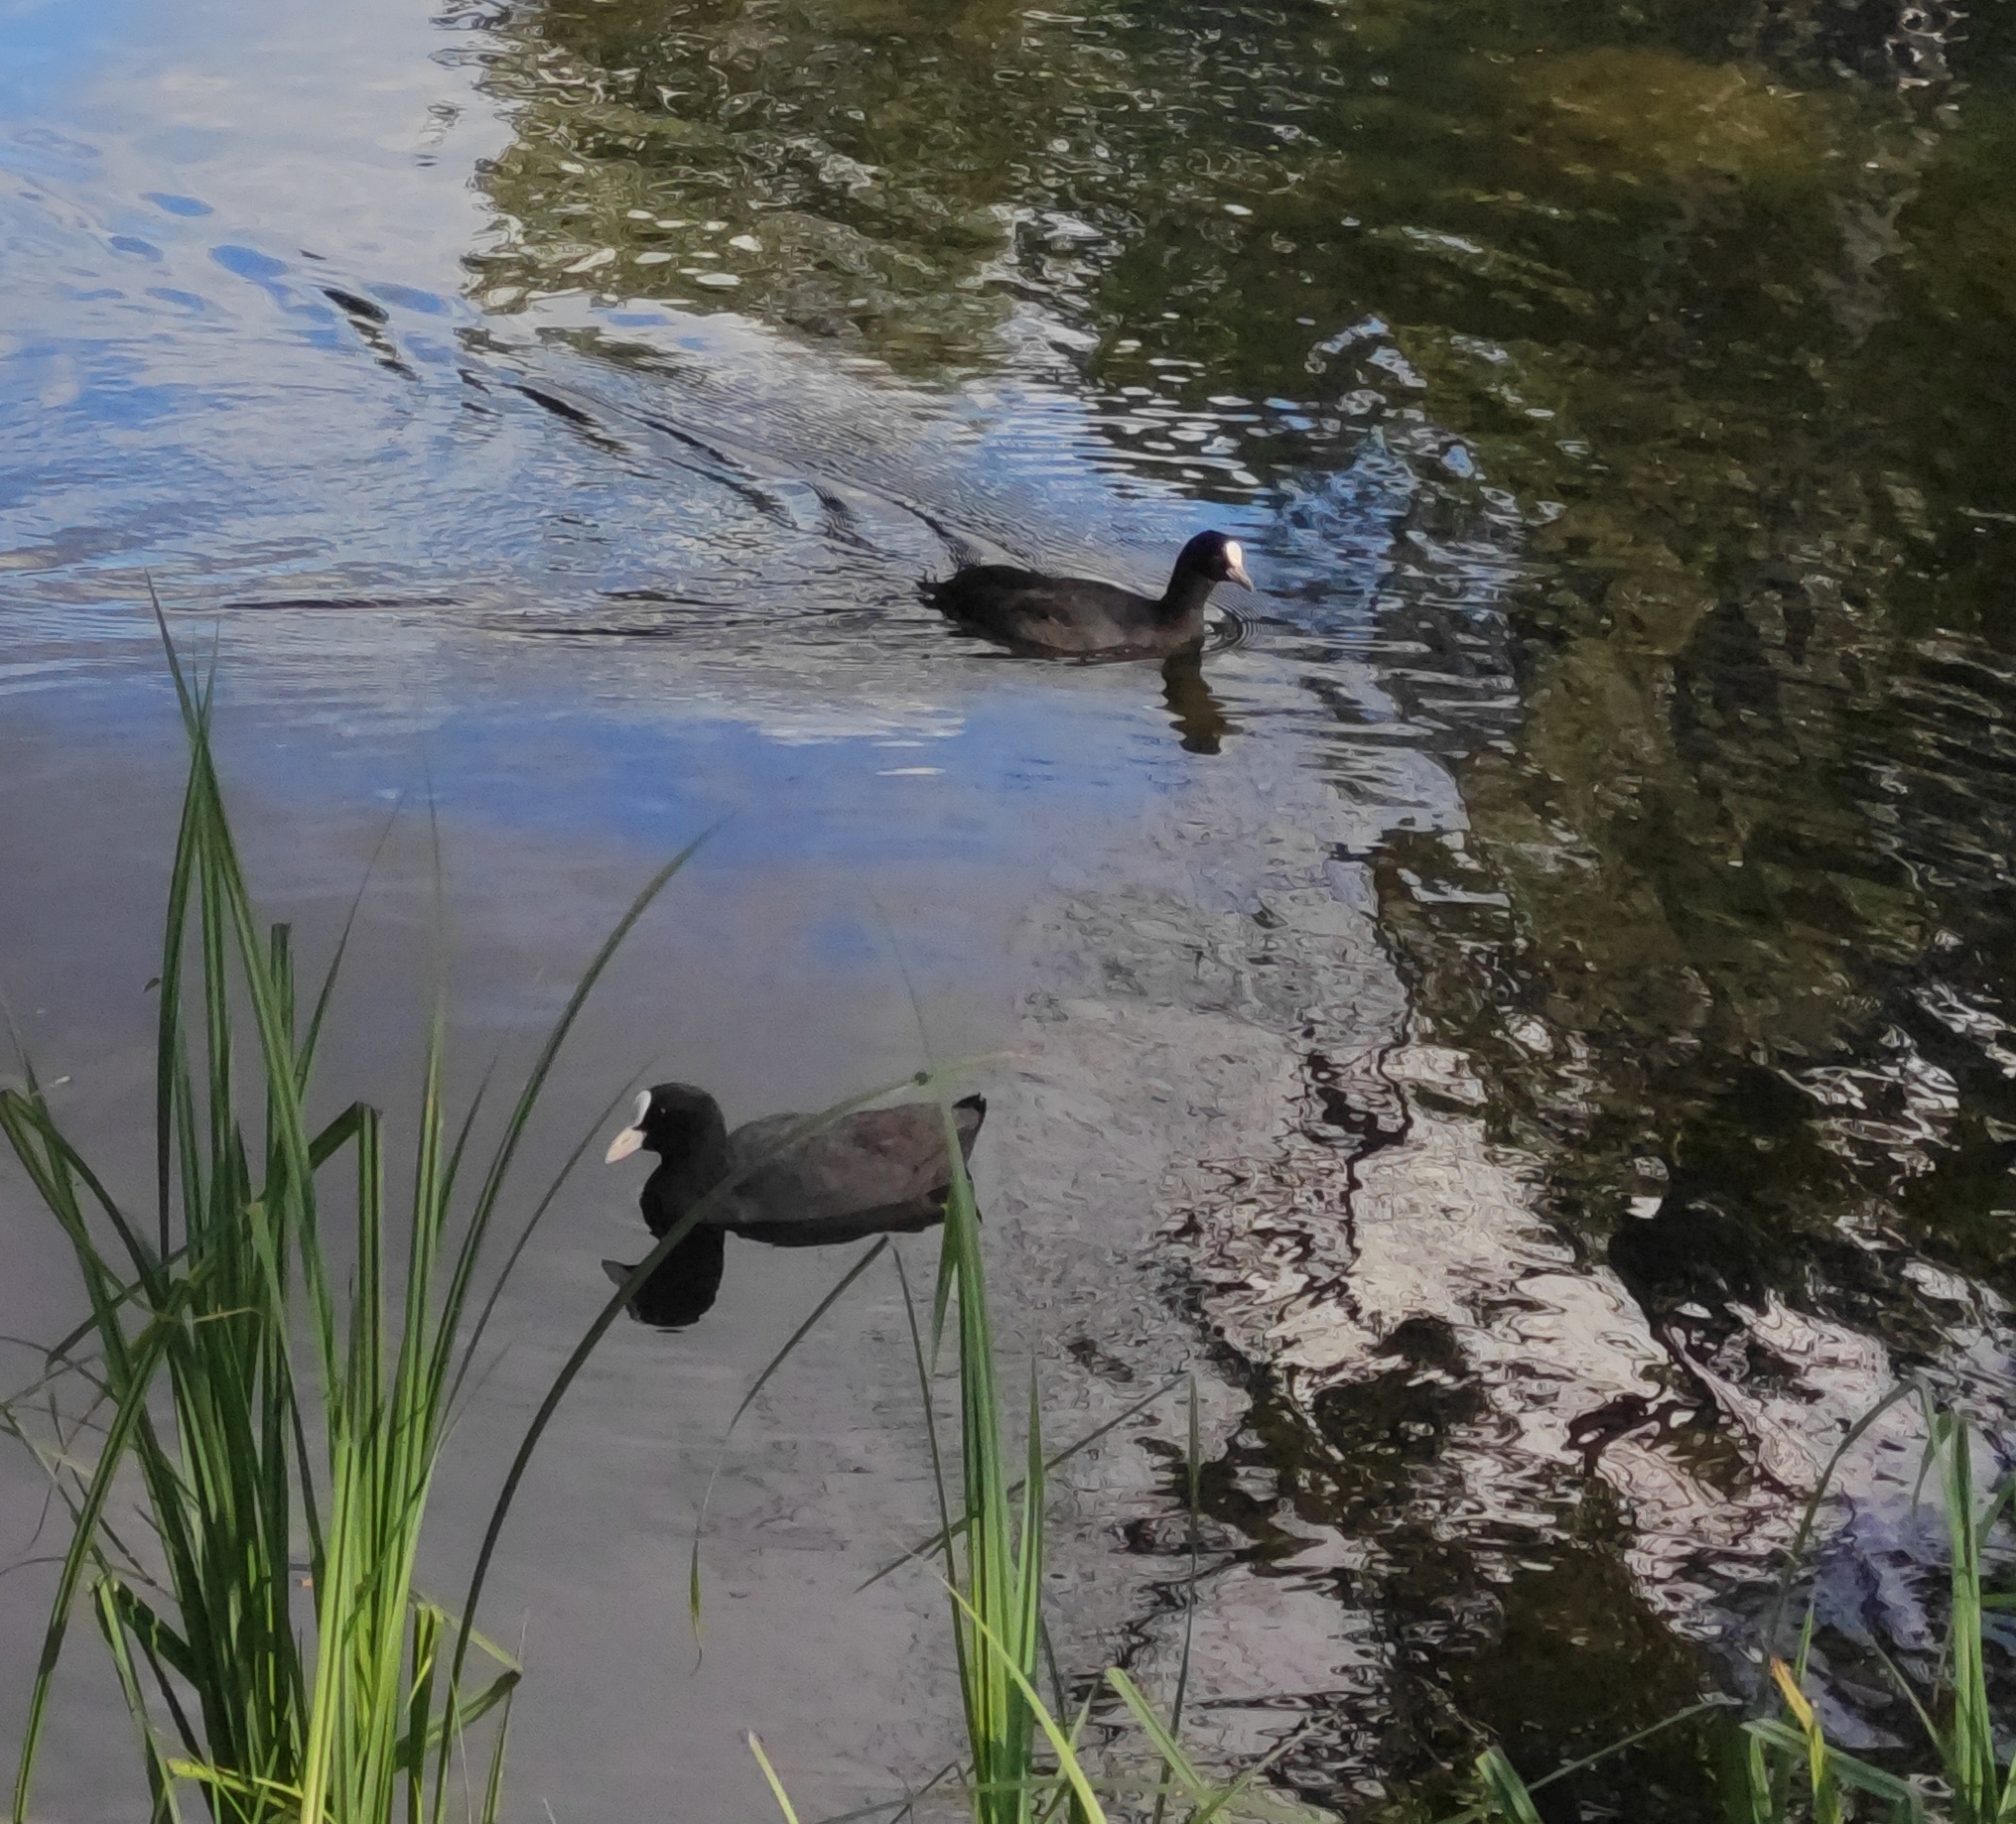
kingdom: Animalia
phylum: Chordata
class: Aves
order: Gruiformes
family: Rallidae
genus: Fulica
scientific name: Fulica atra
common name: Eurasian coot
